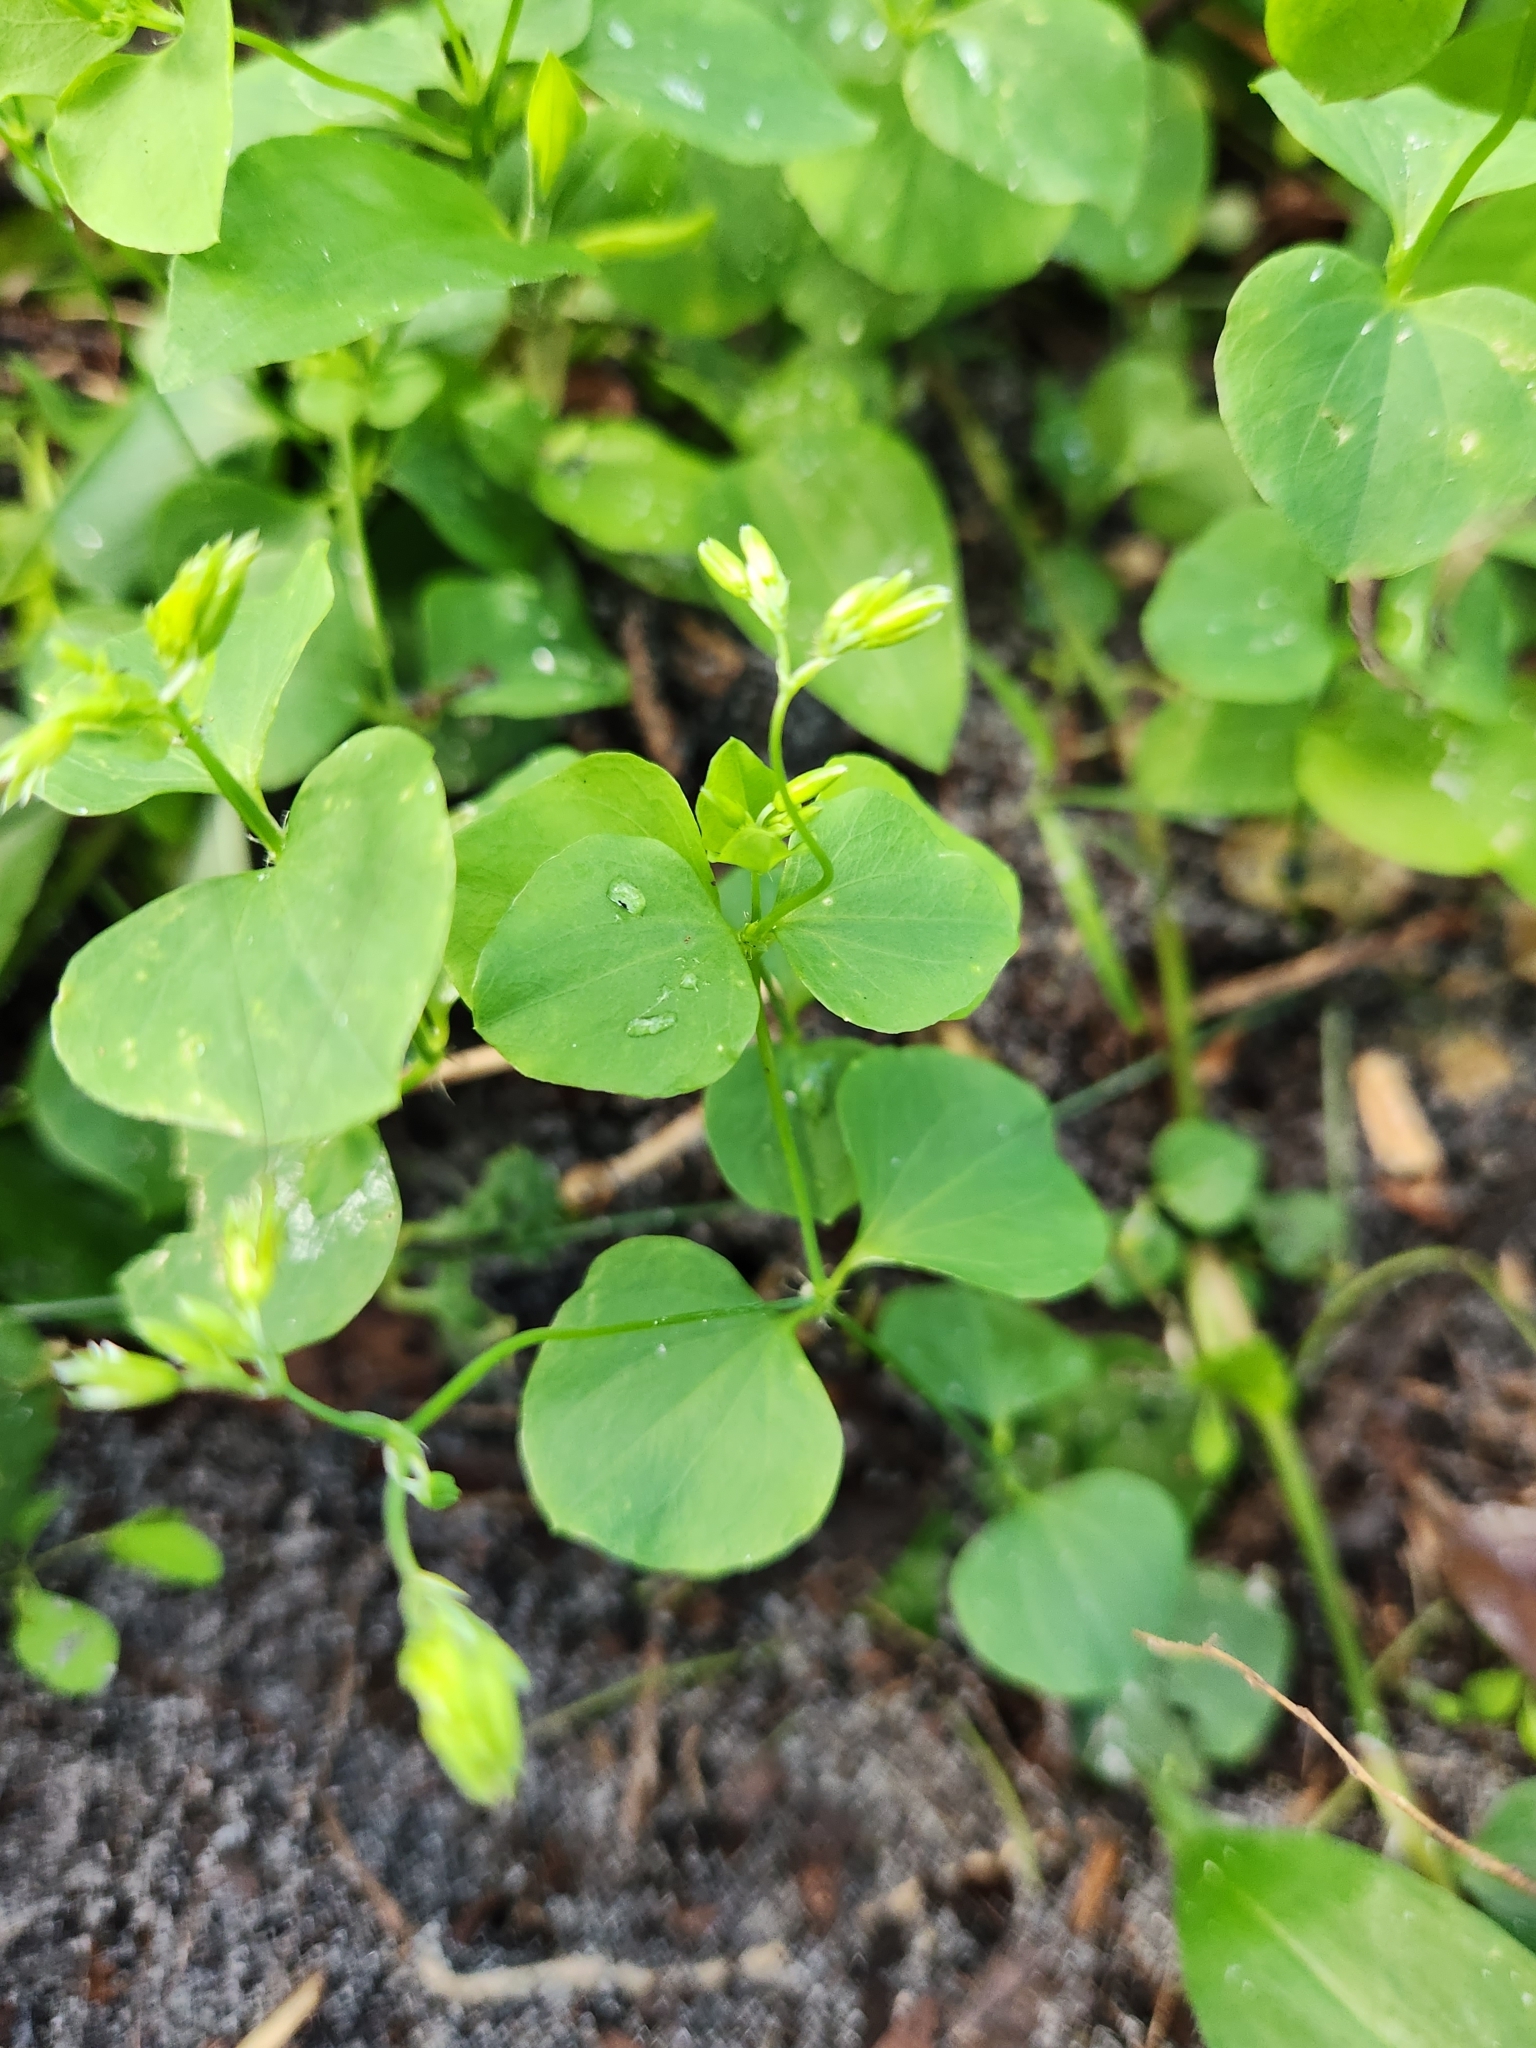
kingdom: Plantae
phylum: Tracheophyta
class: Magnoliopsida
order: Caryophyllales
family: Caryophyllaceae
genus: Drymaria
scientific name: Drymaria cordata
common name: Whitesnow
